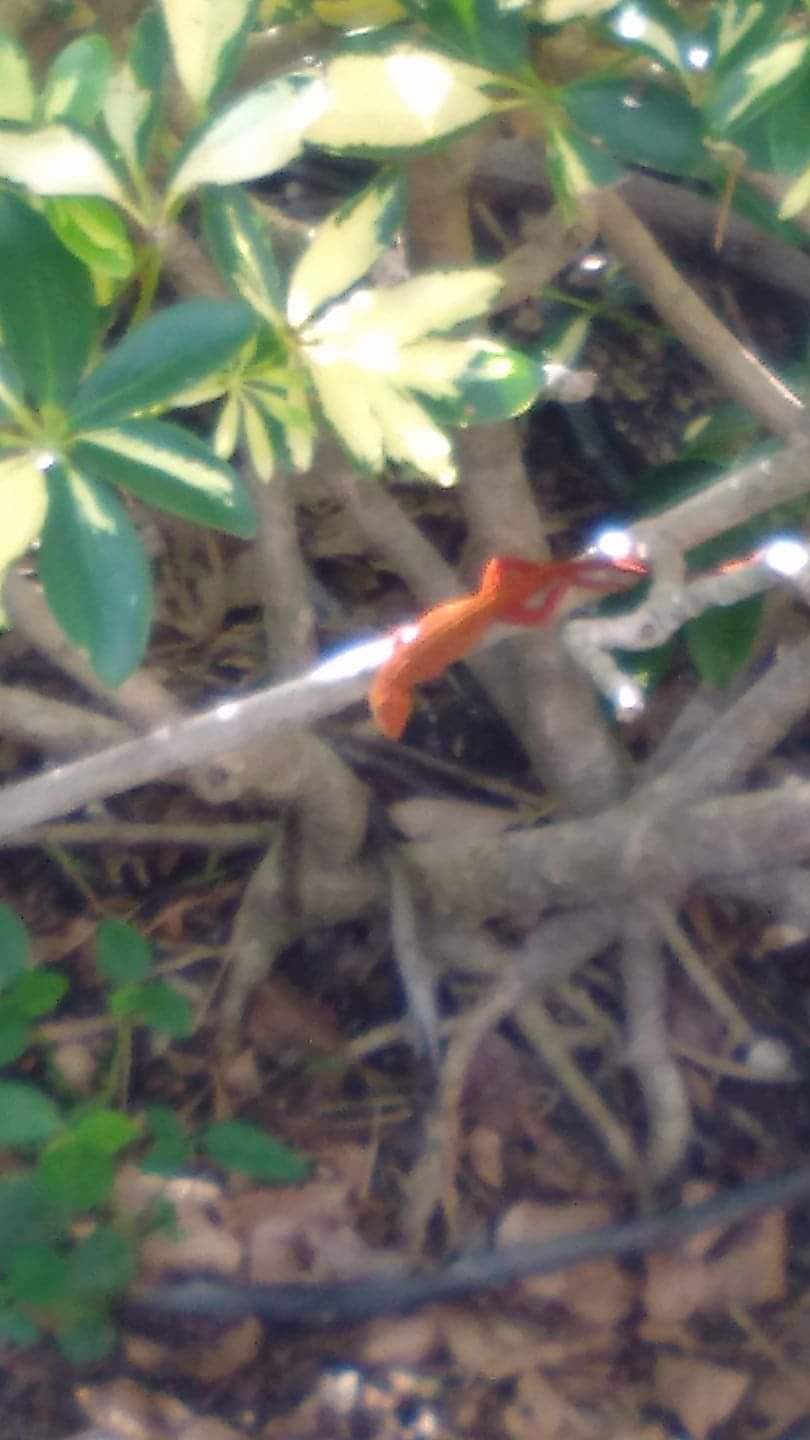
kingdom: Animalia
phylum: Chordata
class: Squamata
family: Dactyloidae
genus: Anolis
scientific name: Anolis sagrei
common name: Brown anole
